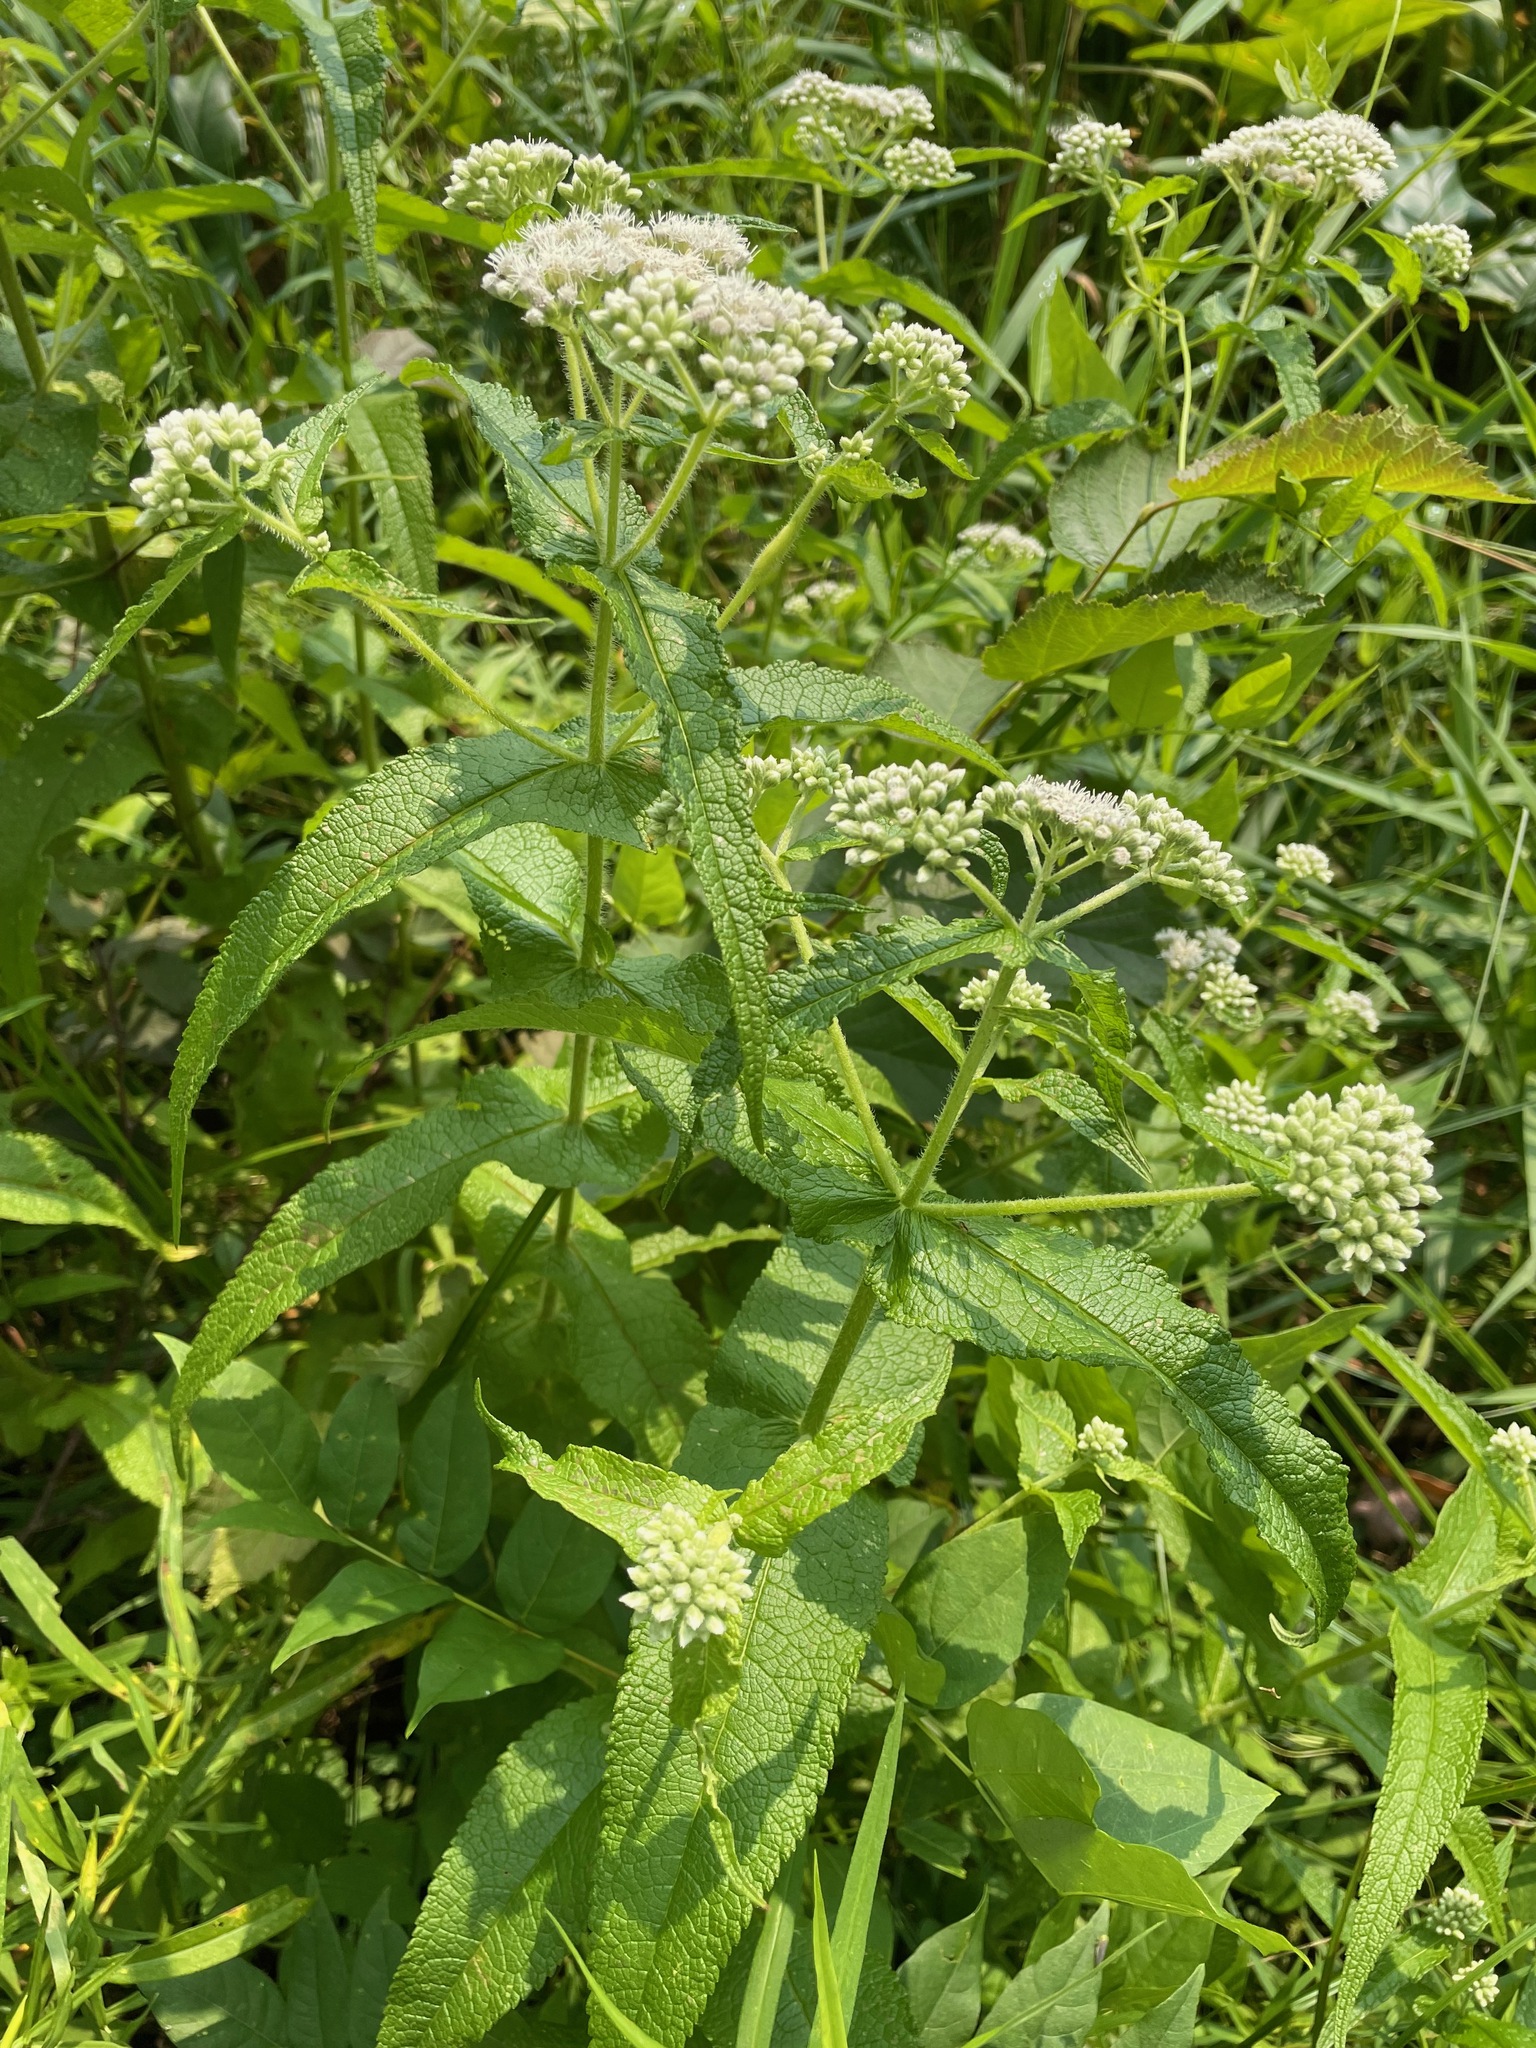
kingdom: Plantae
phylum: Tracheophyta
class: Magnoliopsida
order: Asterales
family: Asteraceae
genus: Eupatorium
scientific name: Eupatorium perfoliatum
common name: Boneset
